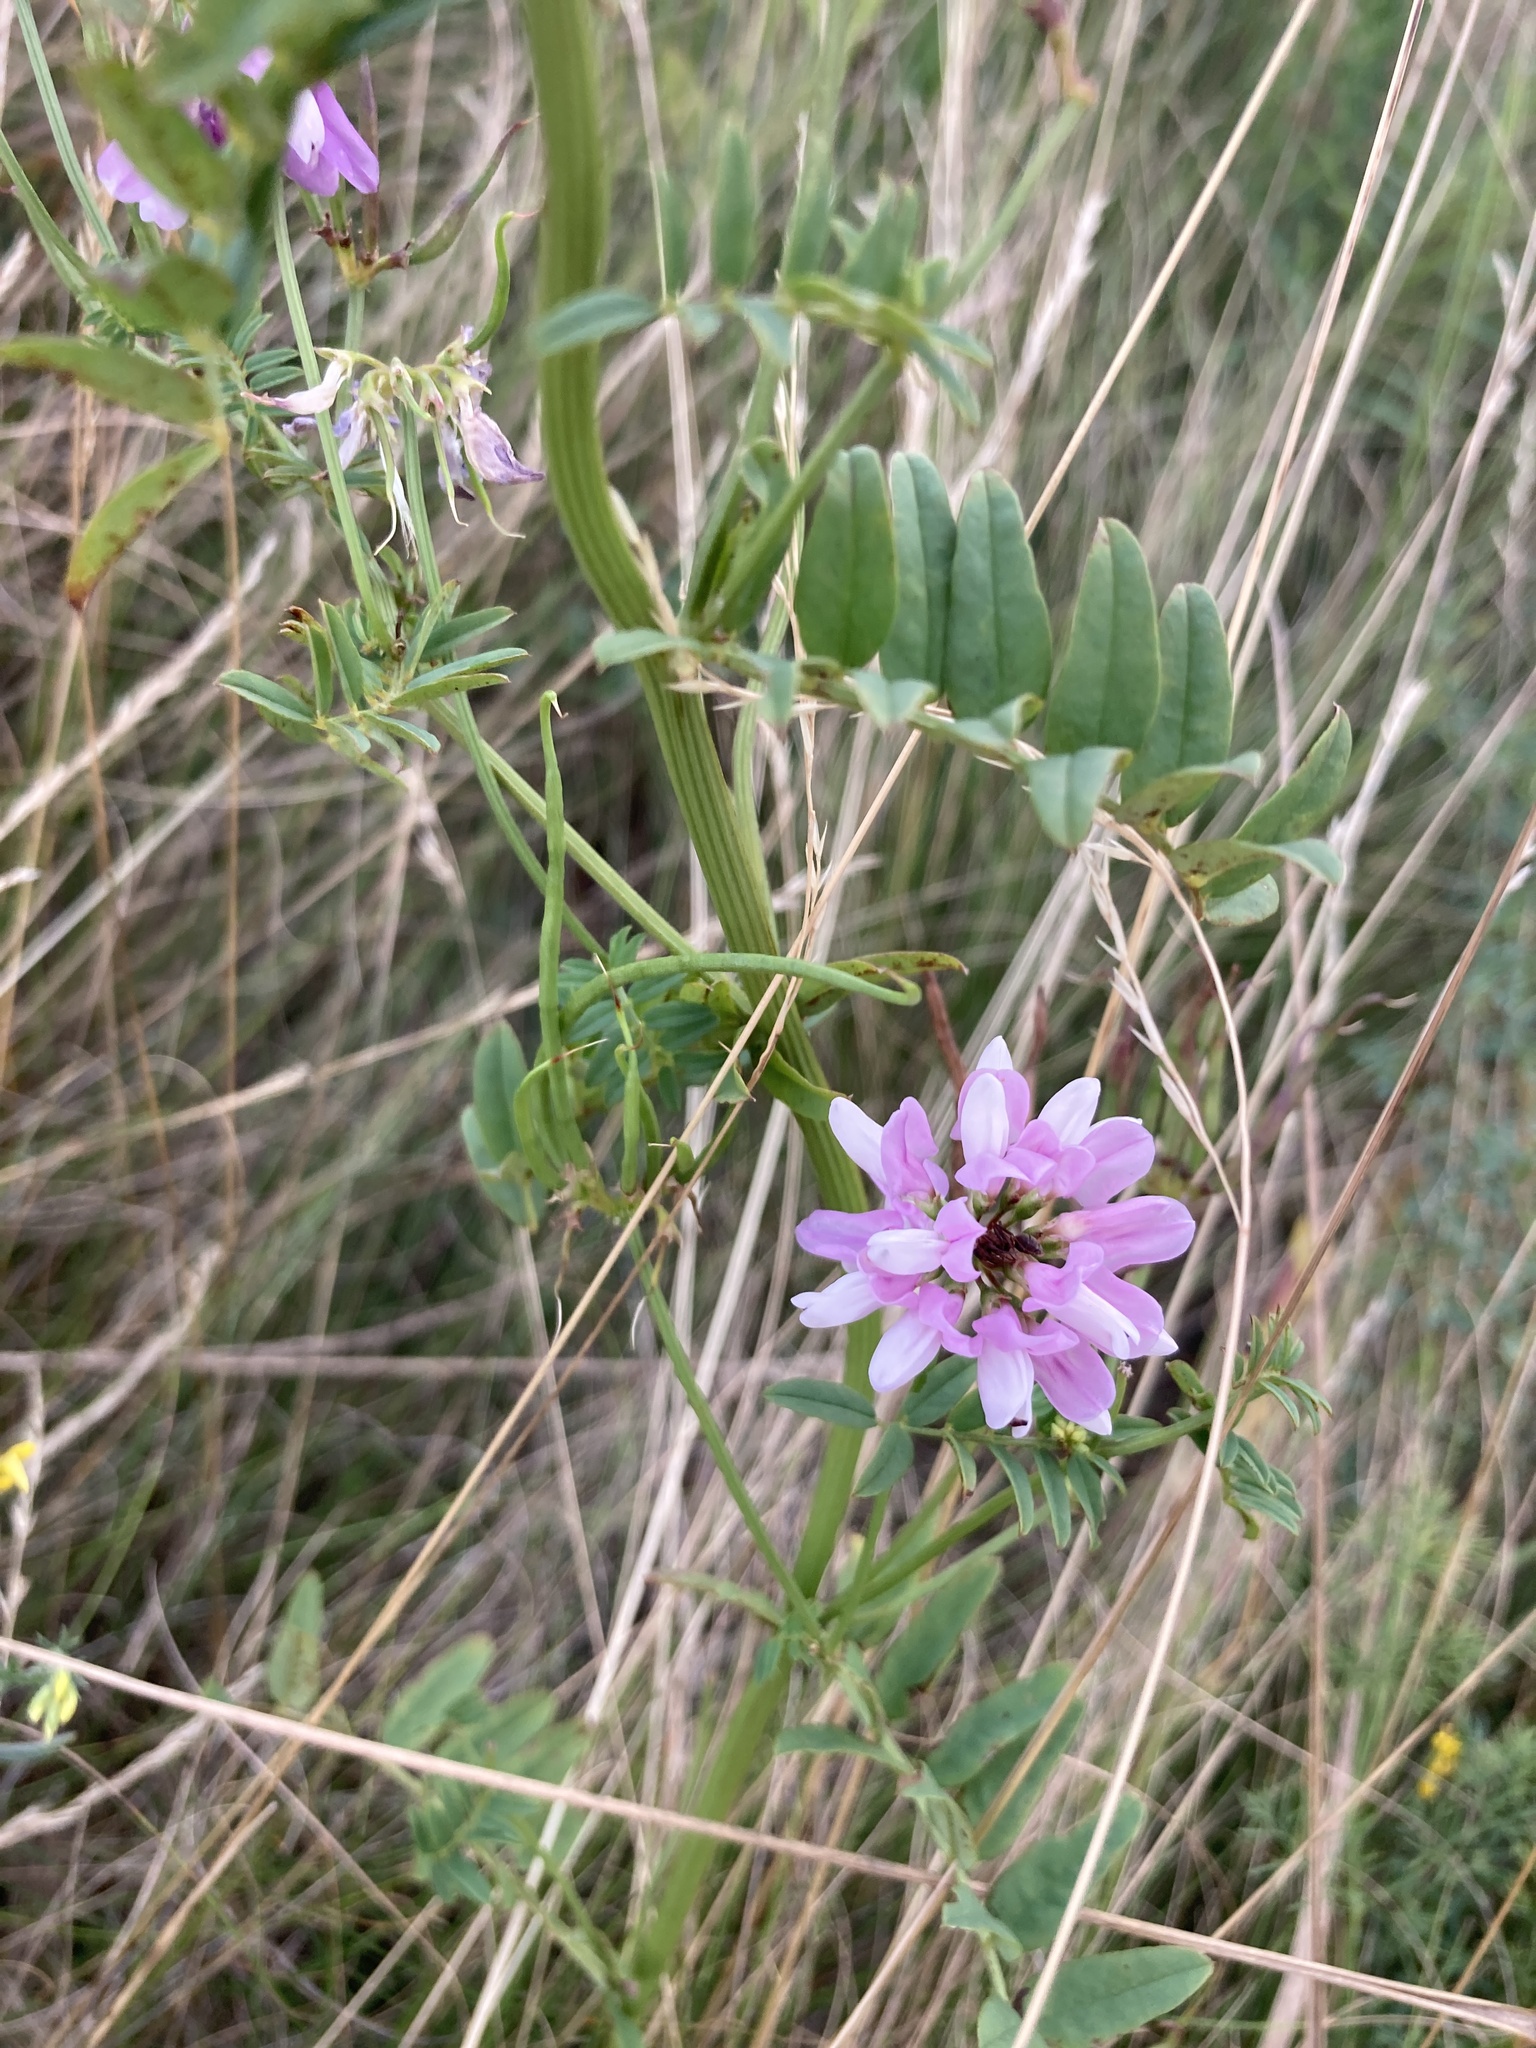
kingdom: Plantae
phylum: Tracheophyta
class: Magnoliopsida
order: Fabales
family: Fabaceae
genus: Coronilla
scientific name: Coronilla varia
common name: Crownvetch
